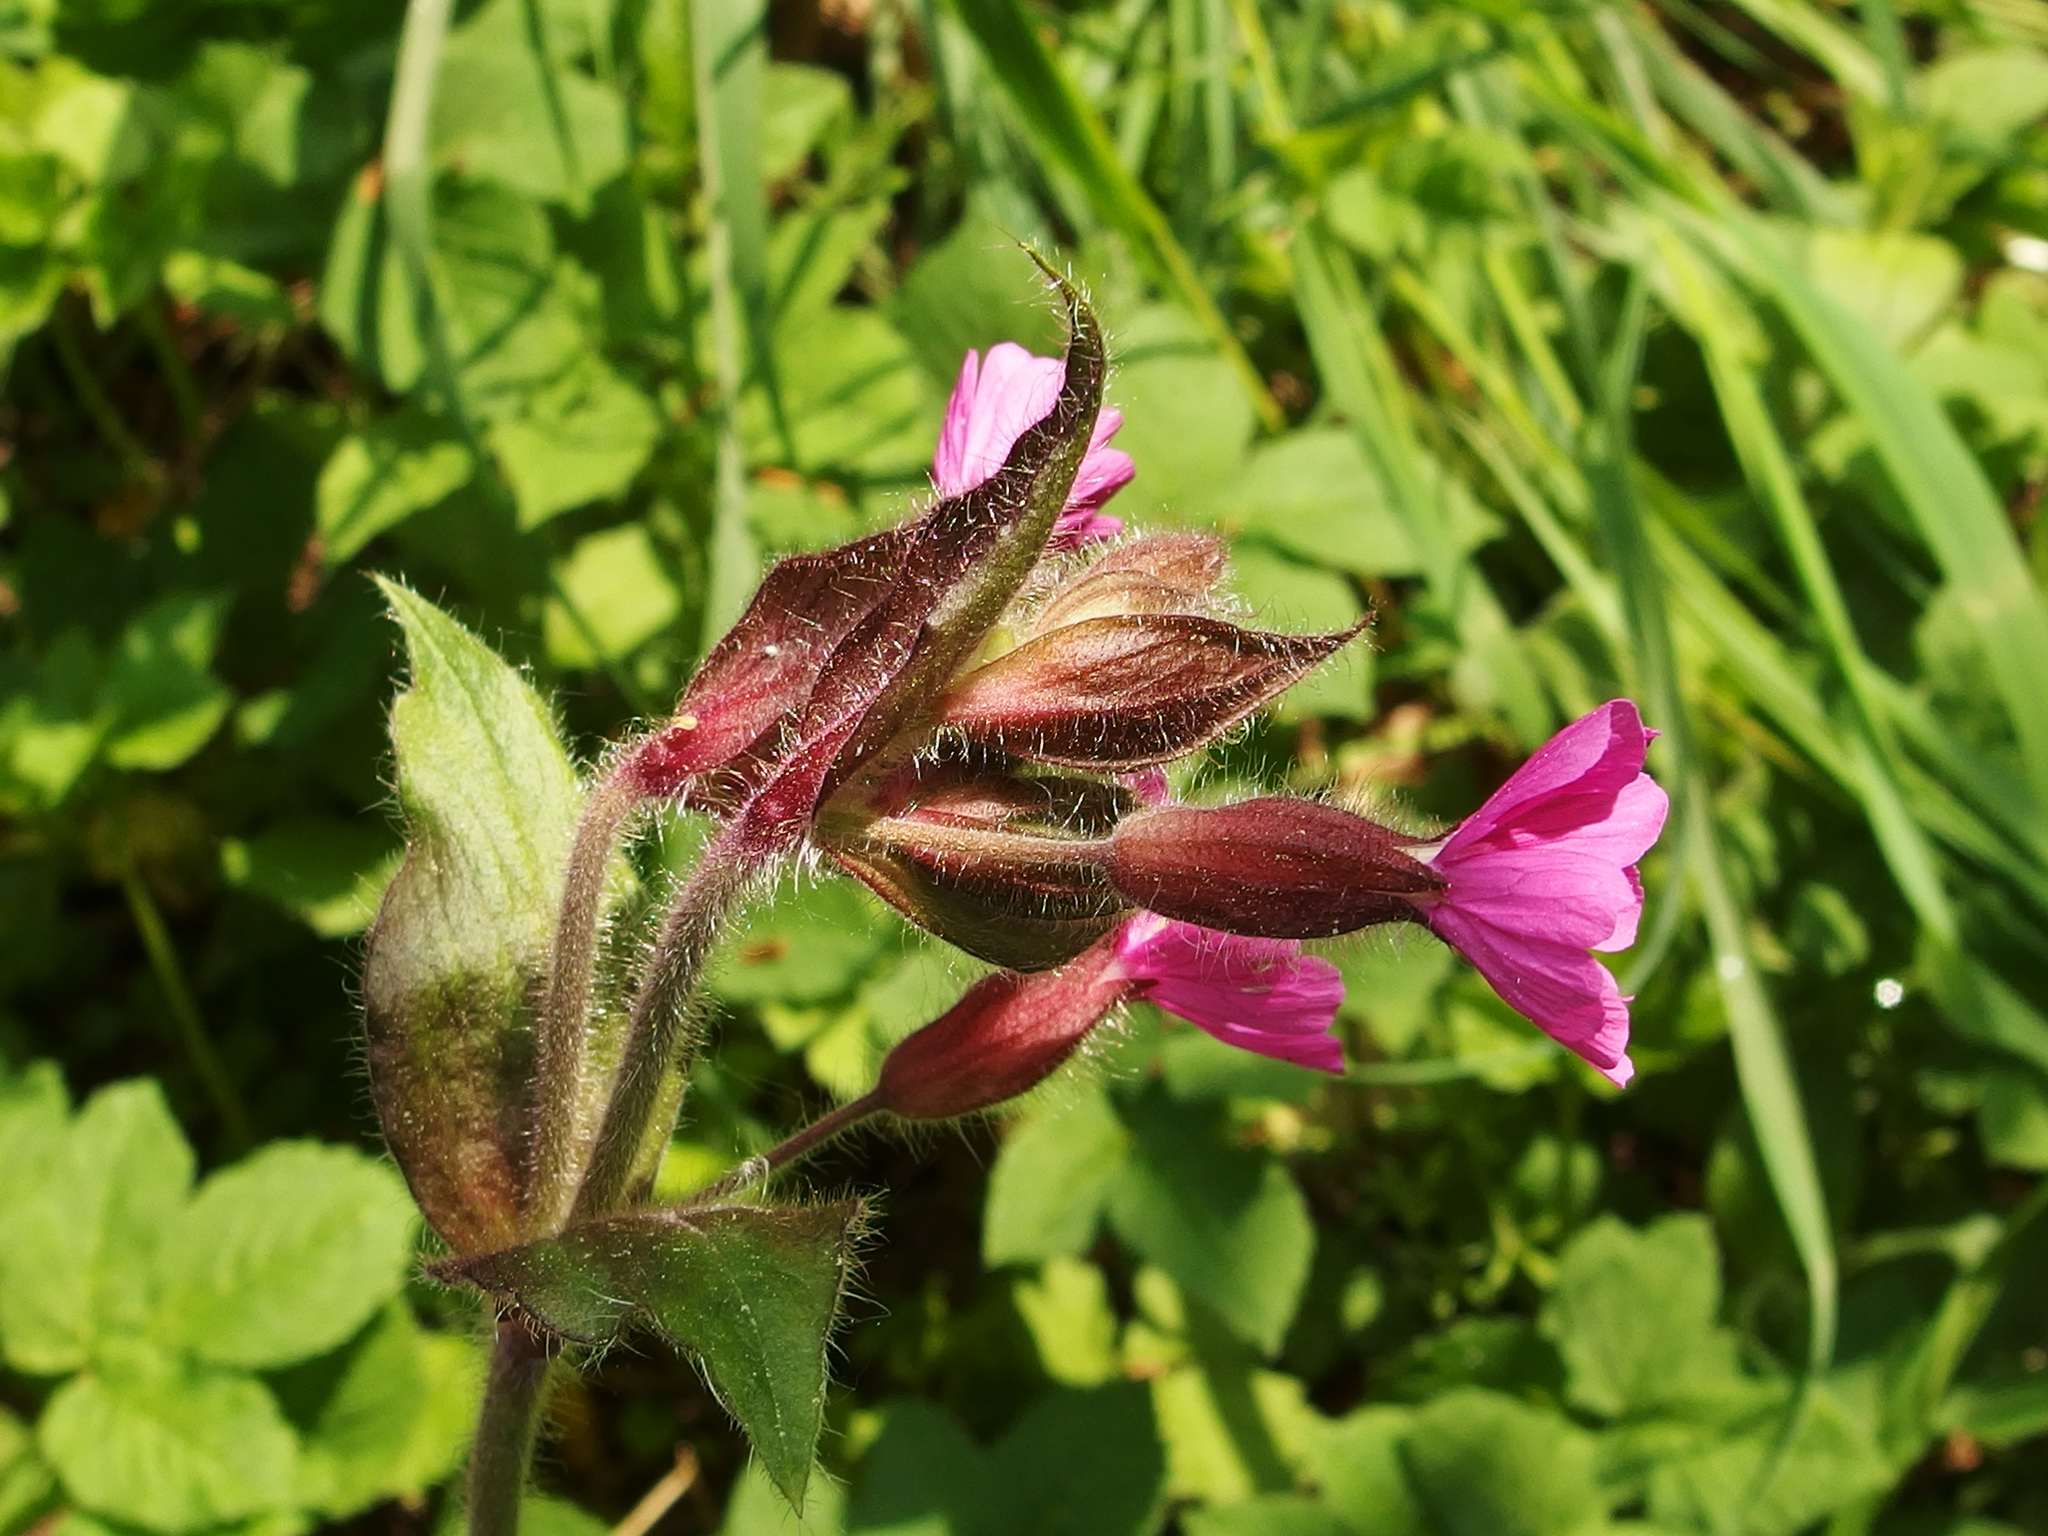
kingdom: Plantae
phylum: Tracheophyta
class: Magnoliopsida
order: Caryophyllales
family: Caryophyllaceae
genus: Silene
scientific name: Silene dioica
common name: Red campion
